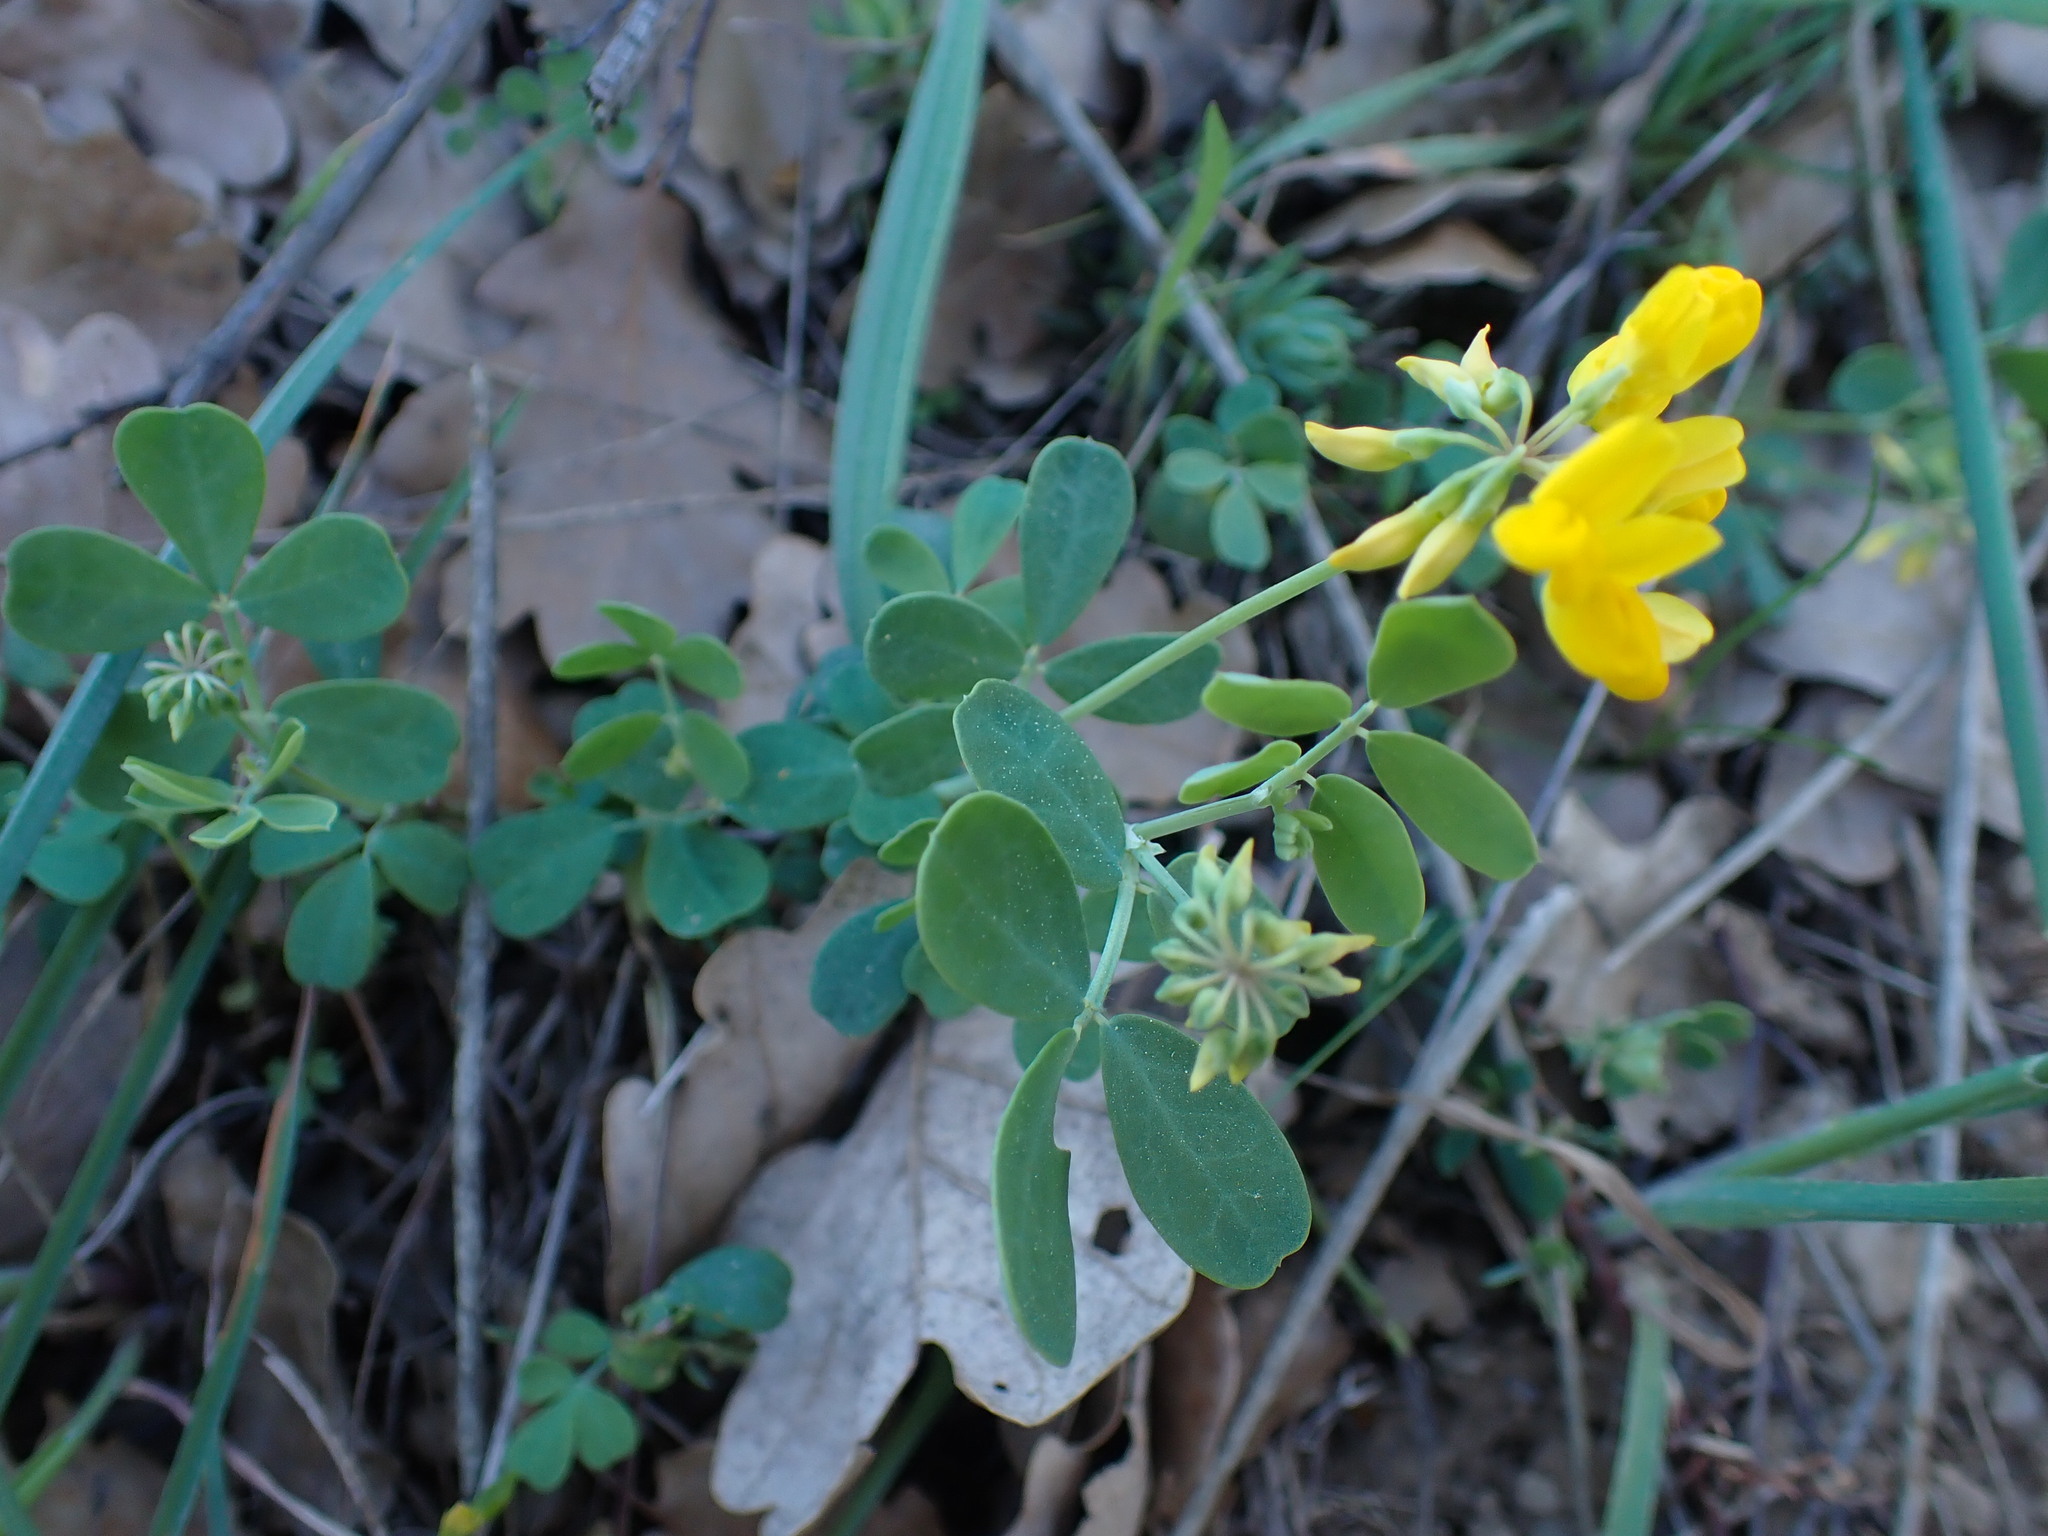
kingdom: Plantae
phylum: Tracheophyta
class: Magnoliopsida
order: Fabales
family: Fabaceae
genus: Coronilla
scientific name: Coronilla valentina
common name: Shrubby scorpion-vetch
